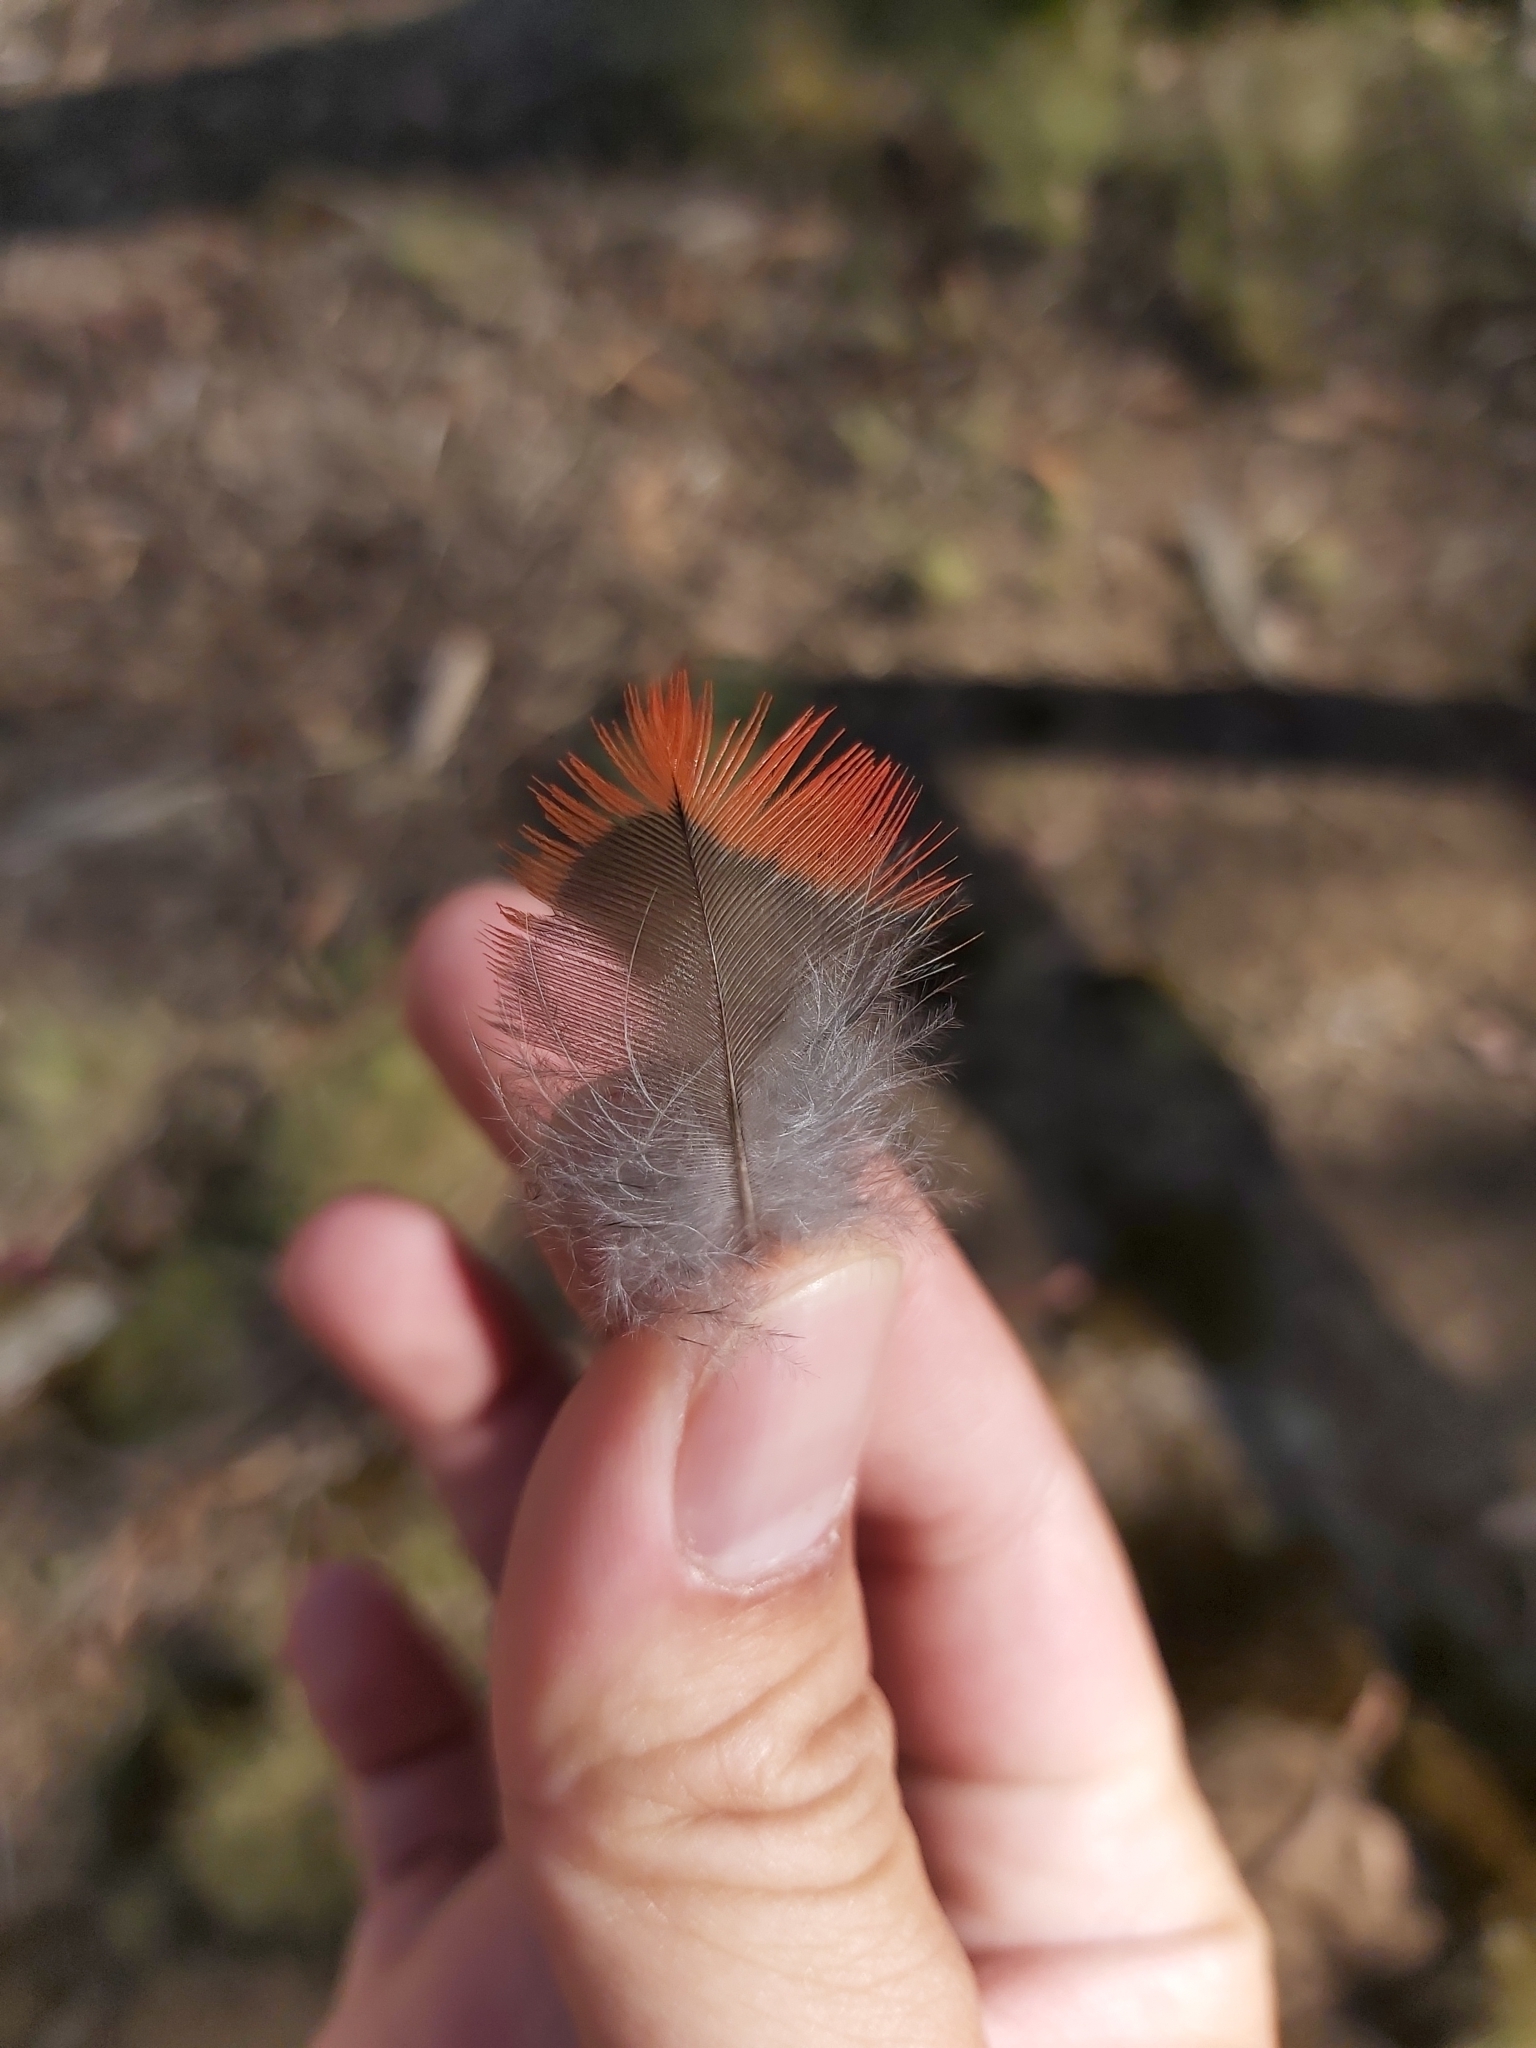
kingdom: Animalia
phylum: Chordata
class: Aves
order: Psittaciformes
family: Psittacidae
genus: Alisterus
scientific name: Alisterus scapularis
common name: Australian king parrot
